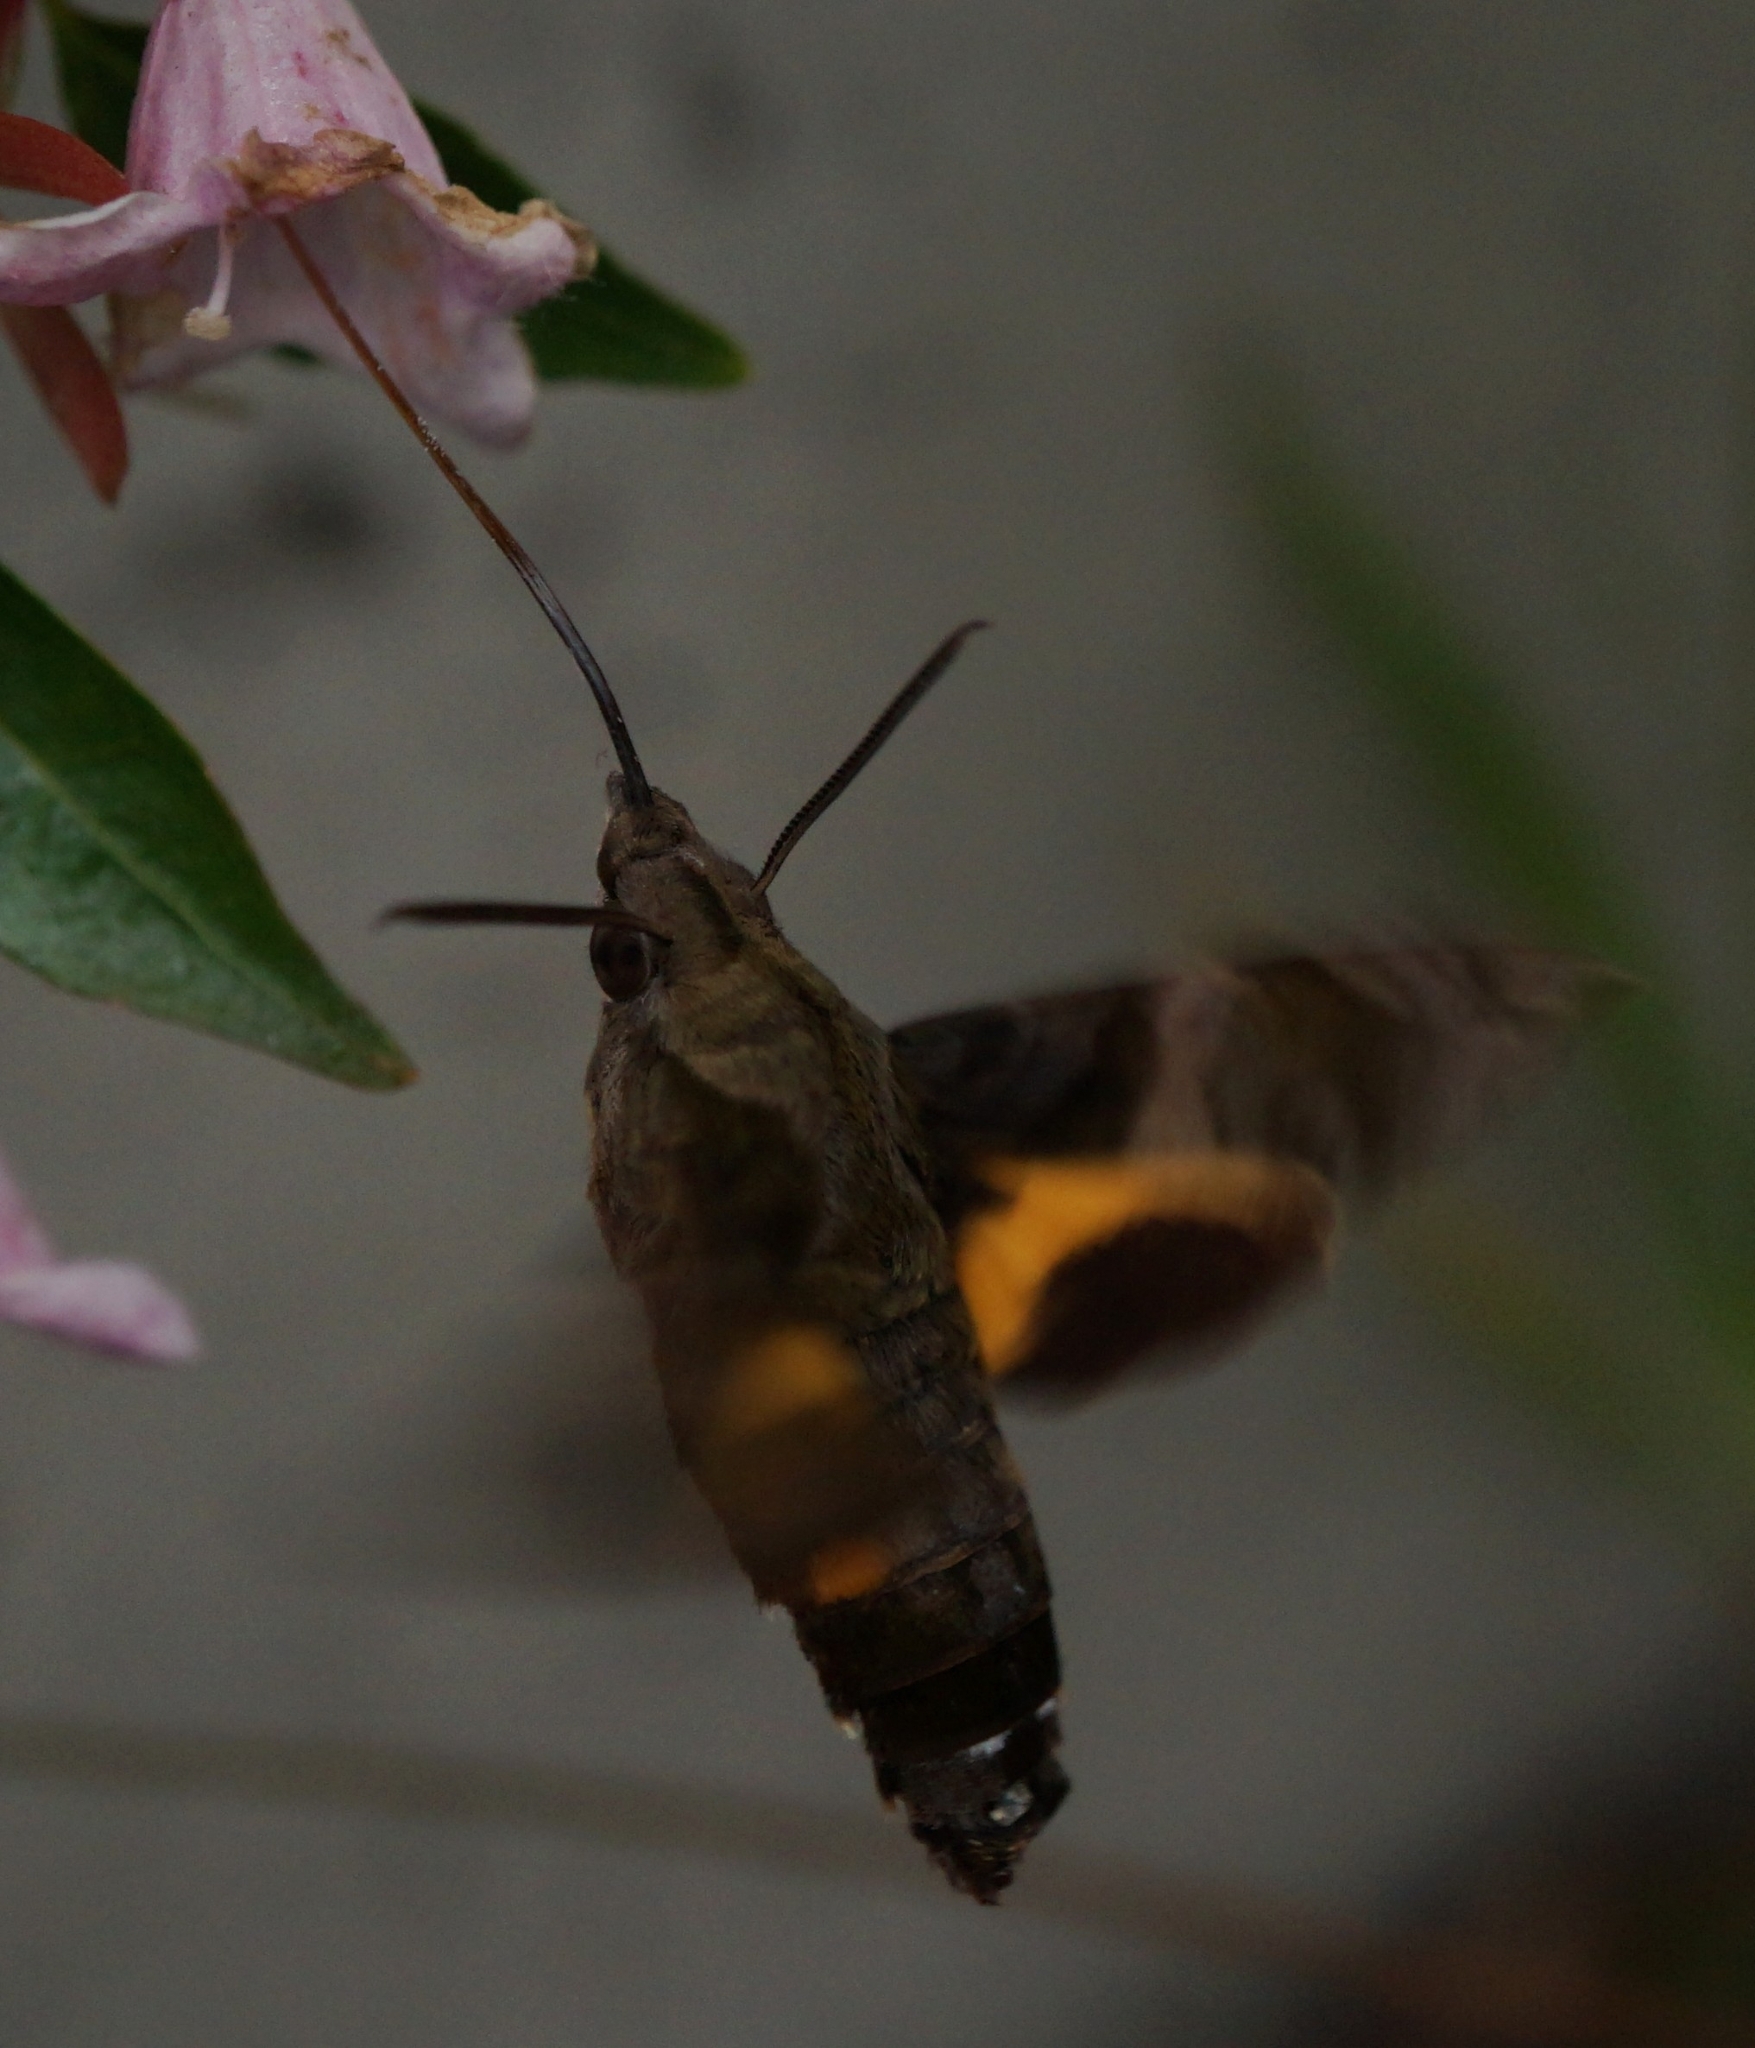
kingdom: Animalia
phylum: Arthropoda
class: Insecta
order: Lepidoptera
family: Sphingidae
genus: Macroglossum
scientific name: Macroglossum pyrrhosticta
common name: Hummingbird hawk moth
